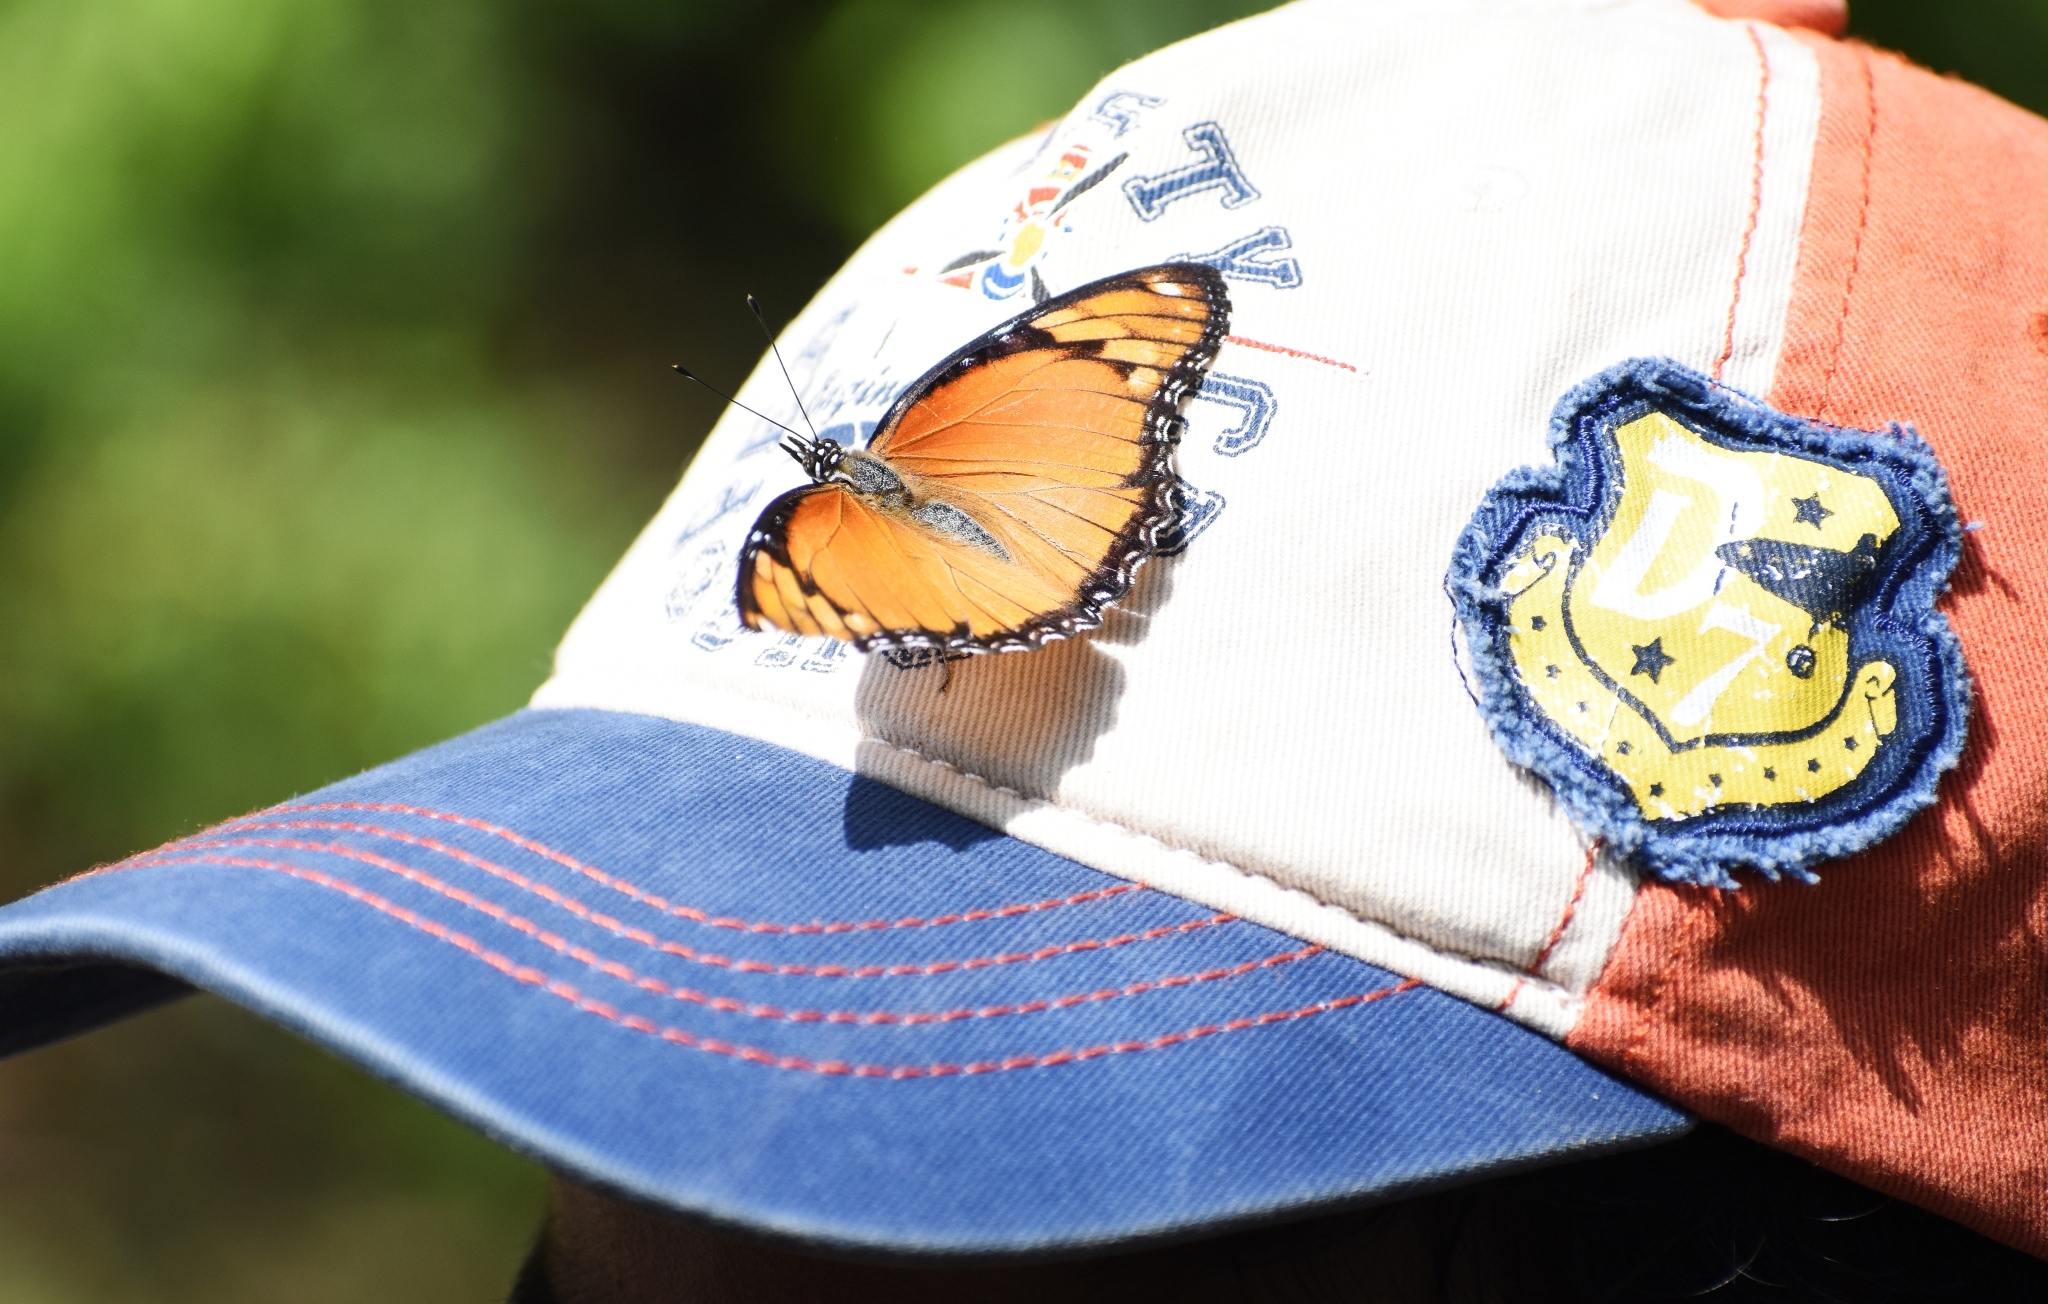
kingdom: Animalia
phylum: Arthropoda
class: Insecta
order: Lepidoptera
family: Nymphalidae
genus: Hypolimnas
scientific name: Hypolimnas misippus
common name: False plain tiger
